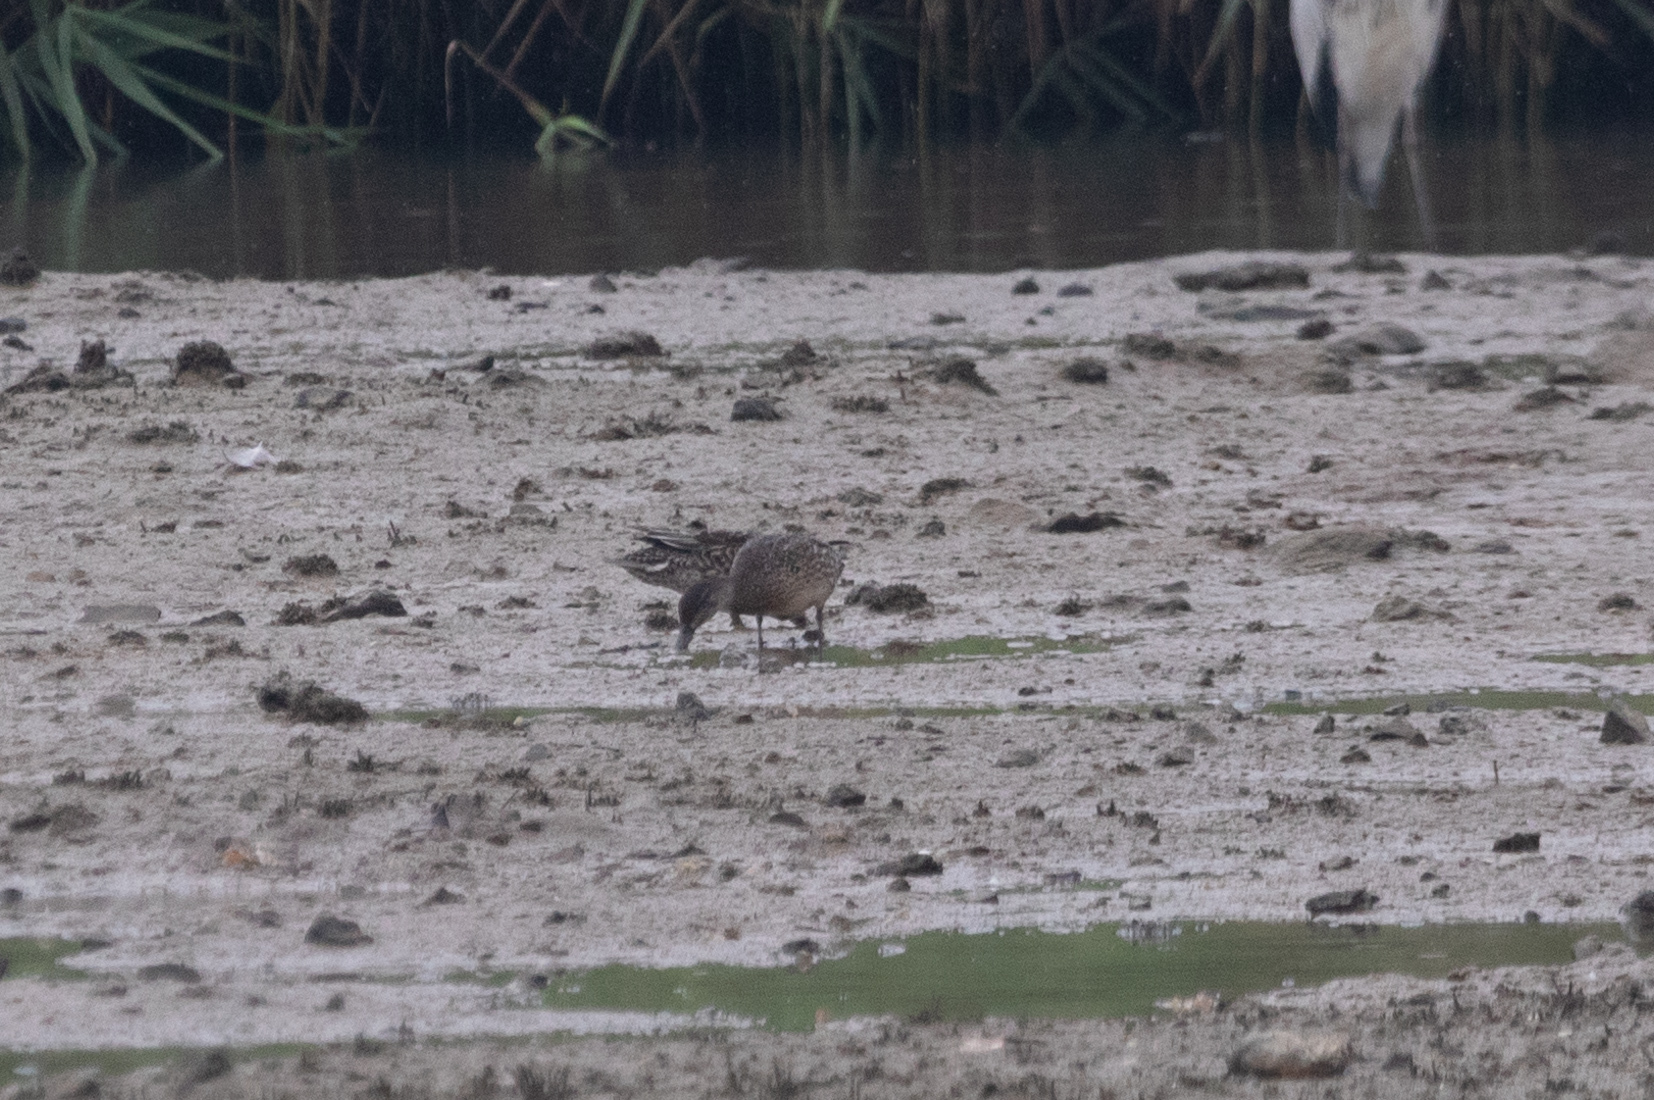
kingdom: Animalia
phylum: Chordata
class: Aves
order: Anseriformes
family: Anatidae
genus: Anas
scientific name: Anas crecca
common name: Eurasian teal
